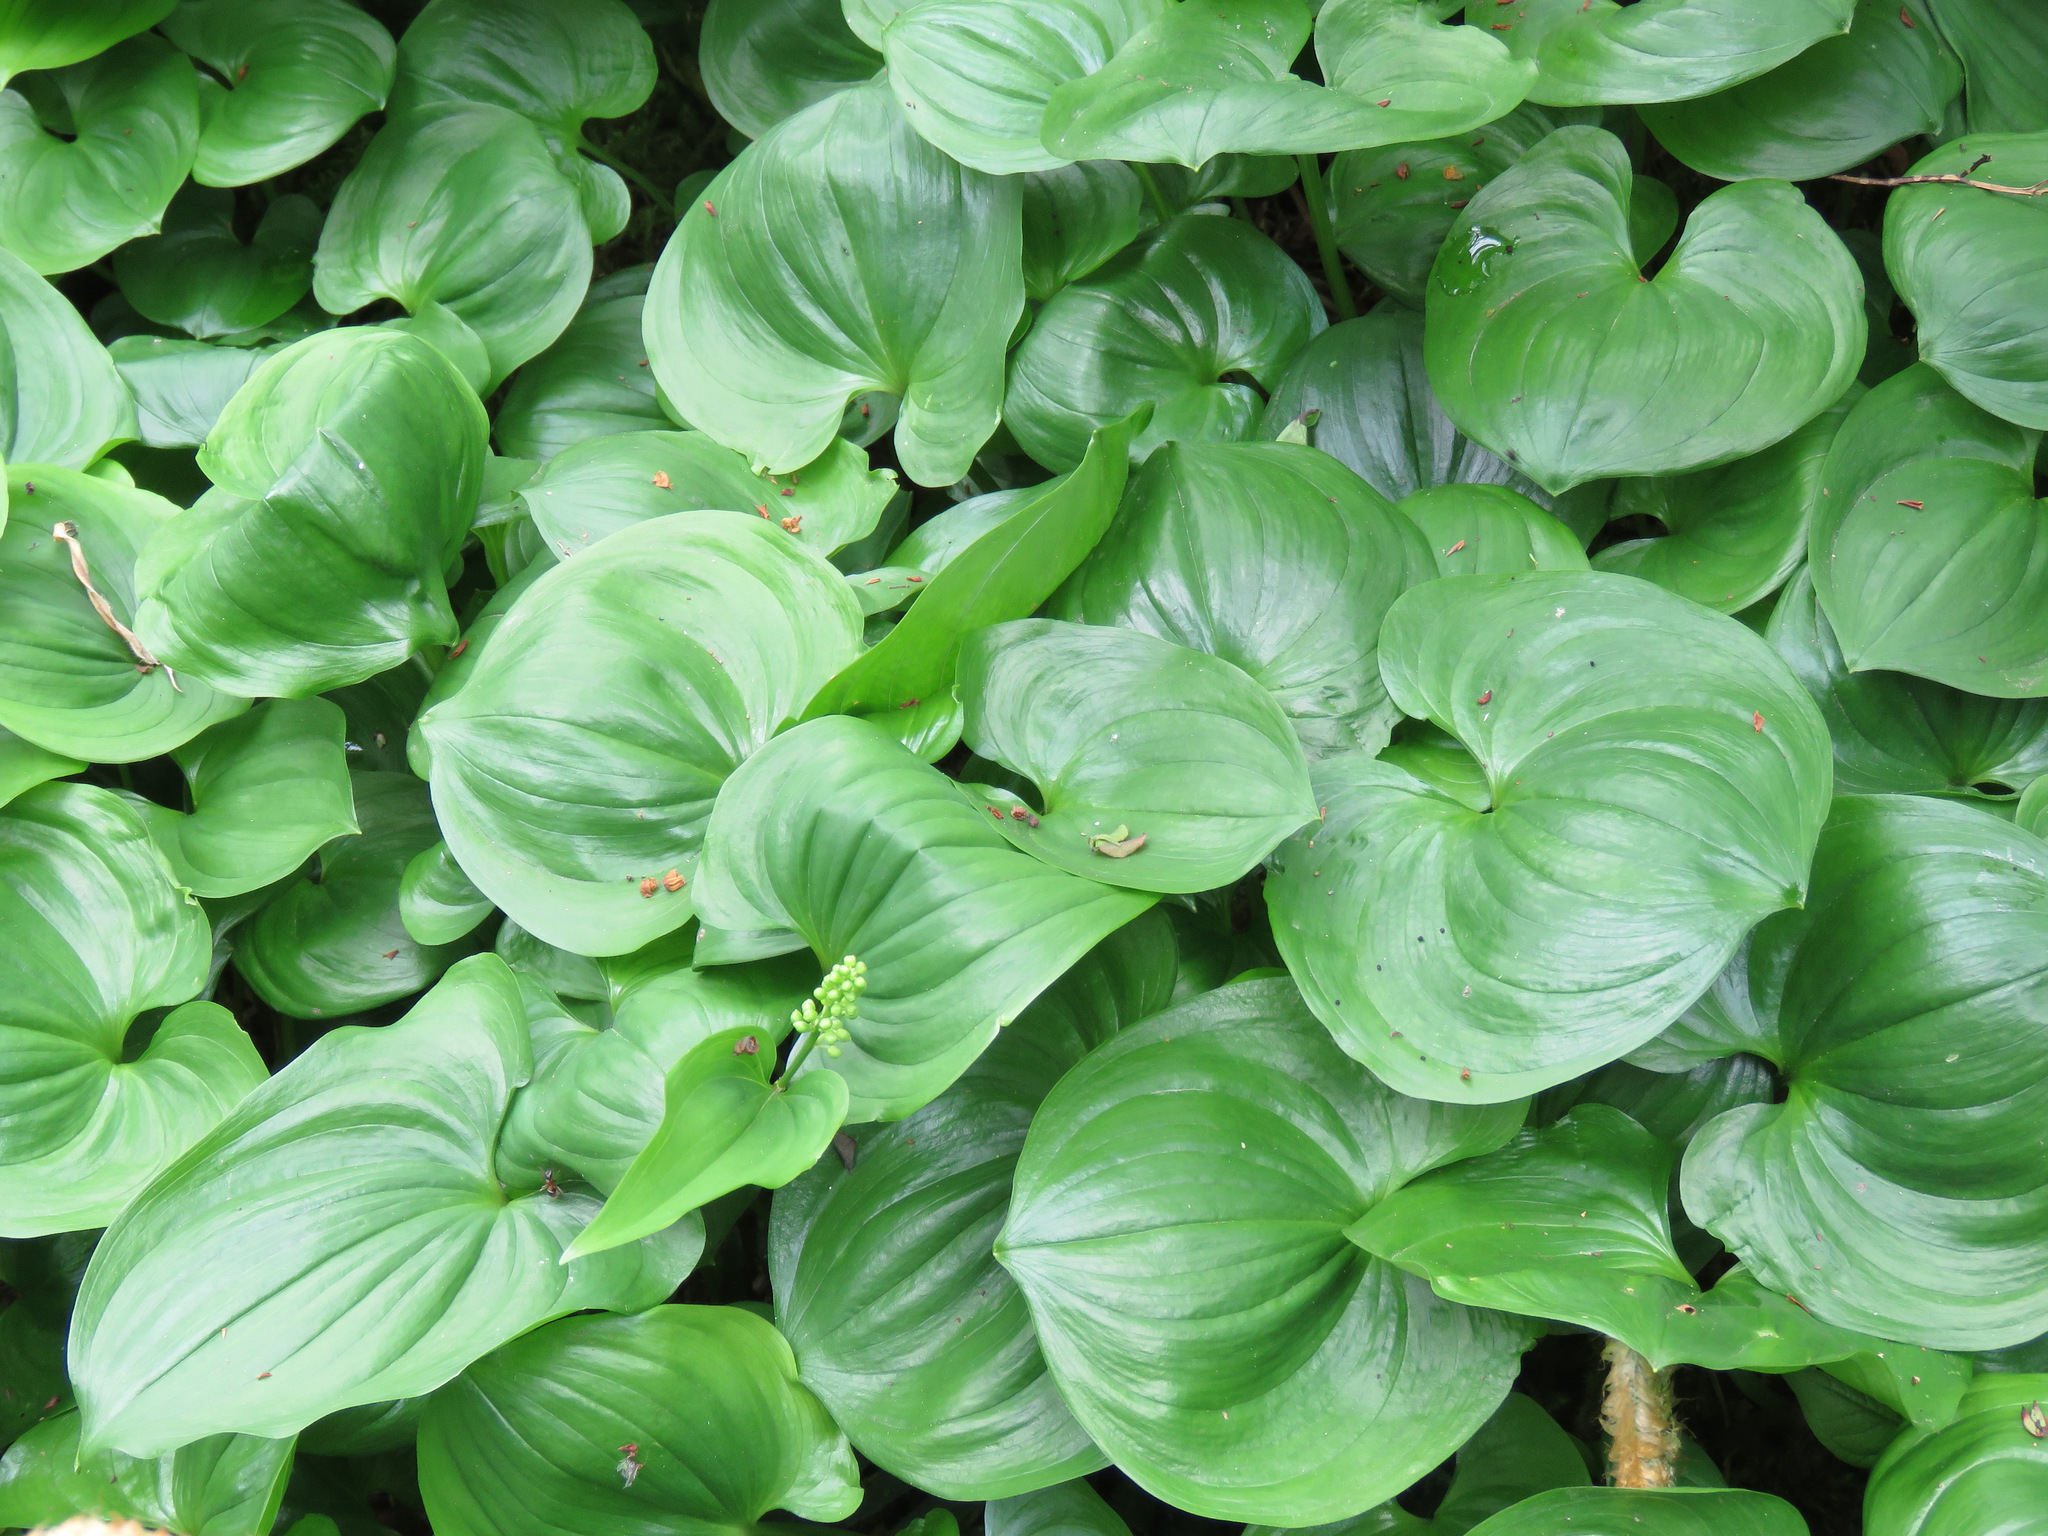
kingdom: Plantae
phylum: Tracheophyta
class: Liliopsida
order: Asparagales
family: Asparagaceae
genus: Maianthemum
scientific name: Maianthemum dilatatum
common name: False lily-of-the-valley
